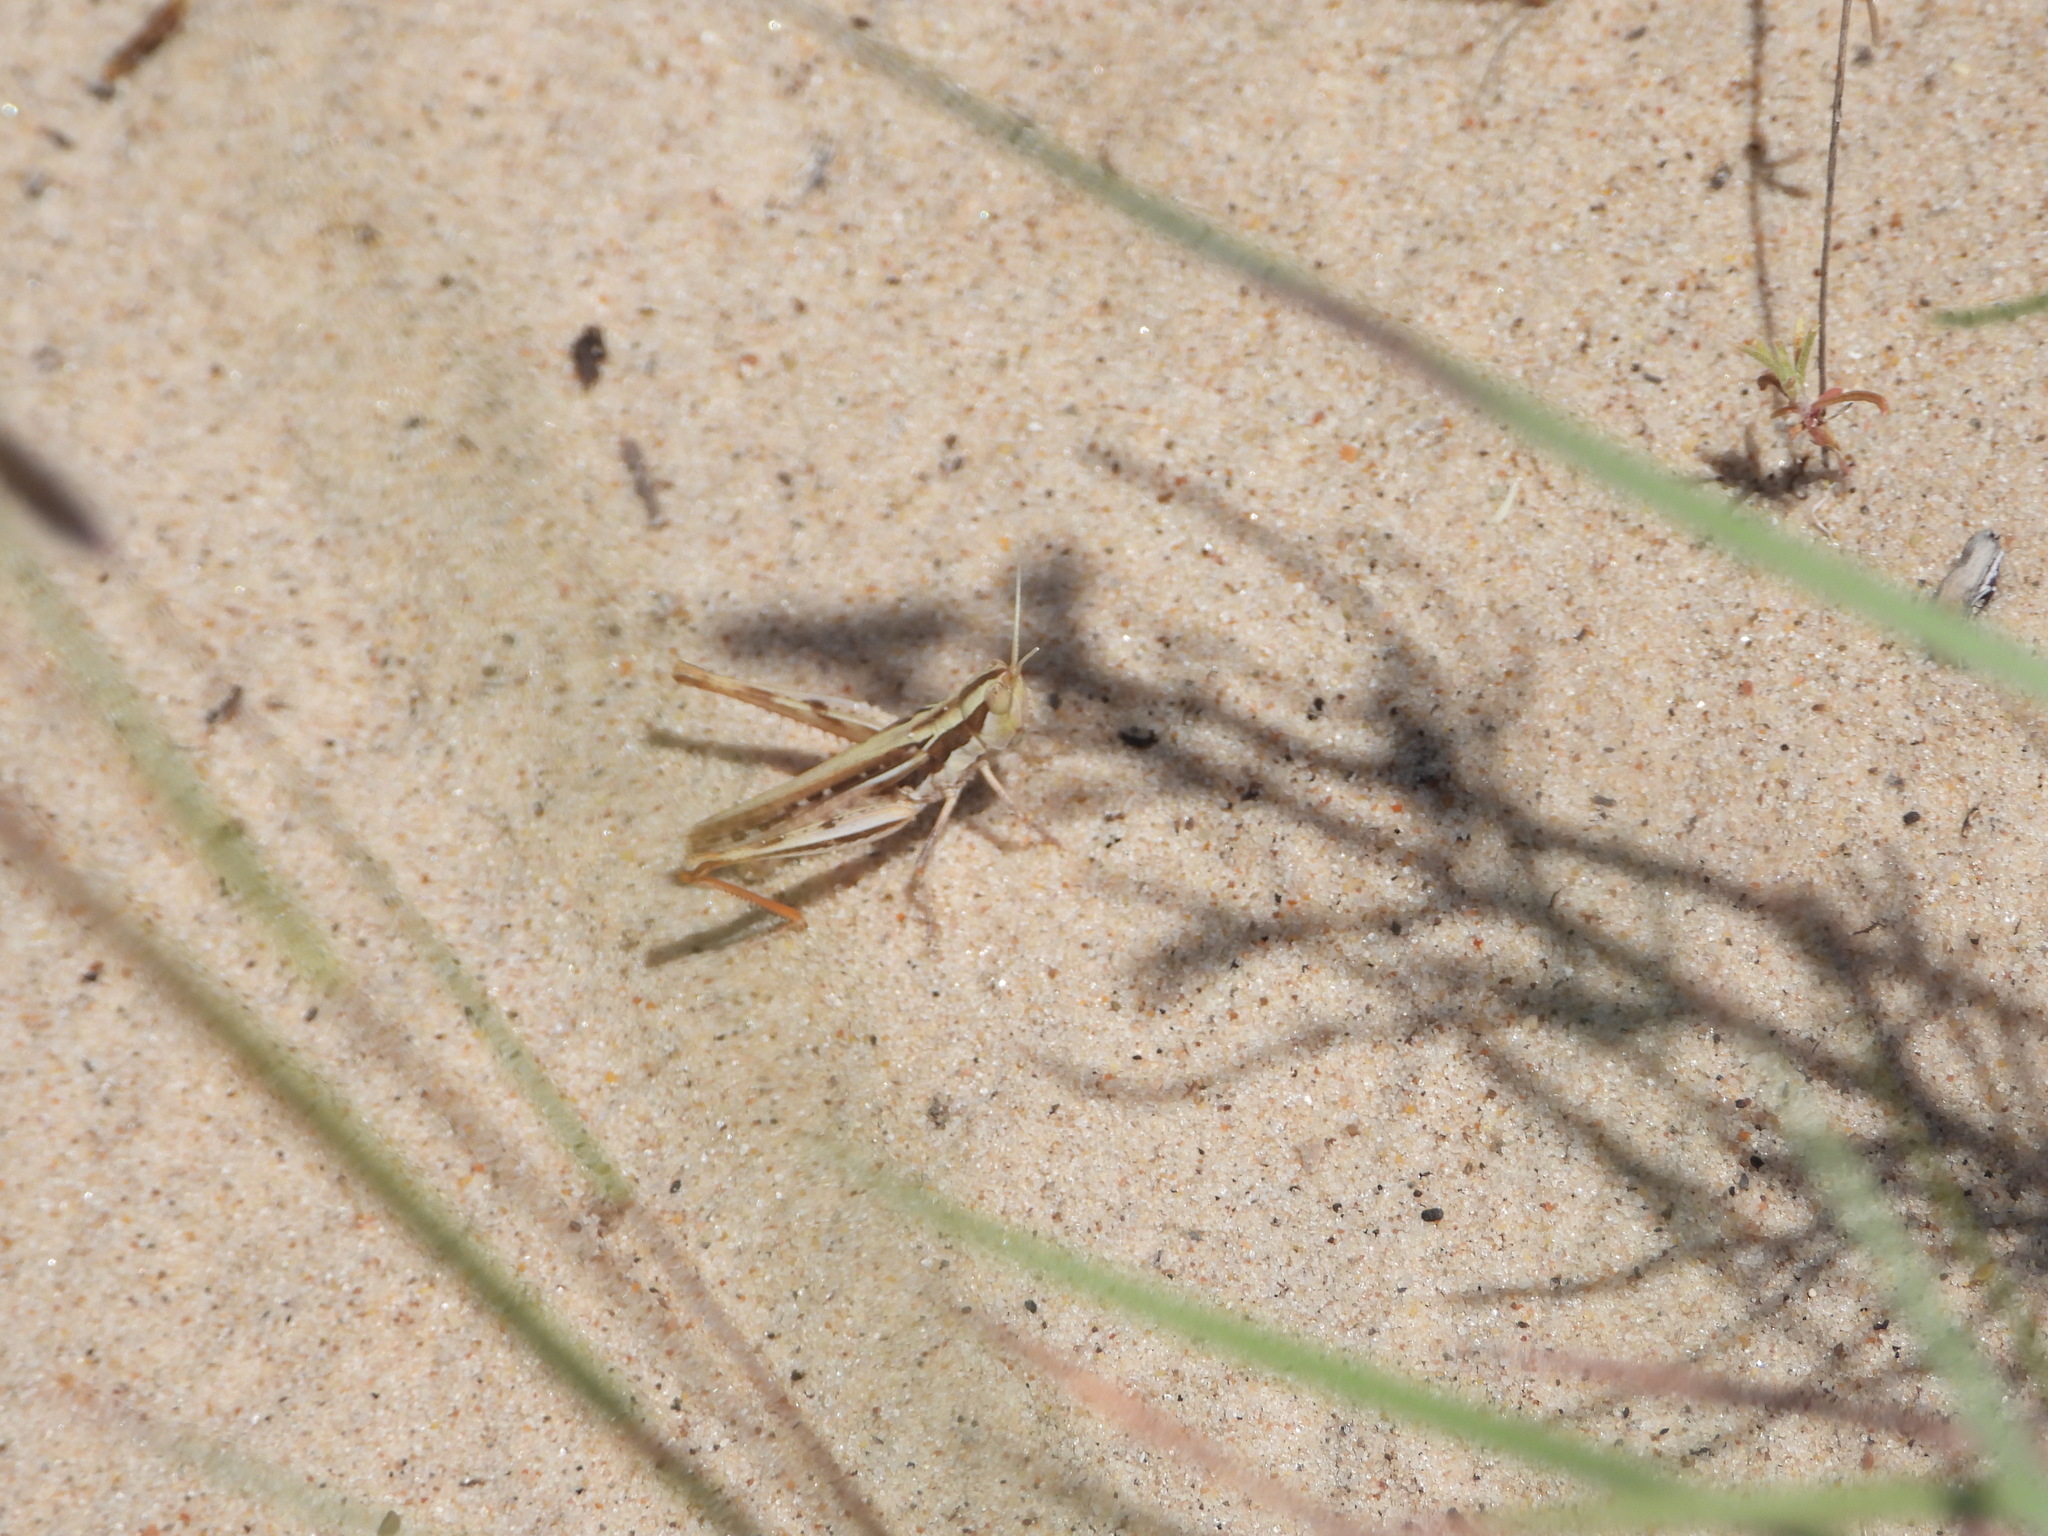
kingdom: Animalia
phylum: Arthropoda
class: Insecta
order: Orthoptera
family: Acrididae
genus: Cordillacris
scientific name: Cordillacris occipitalis
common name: Spotted-winged grasshopper
